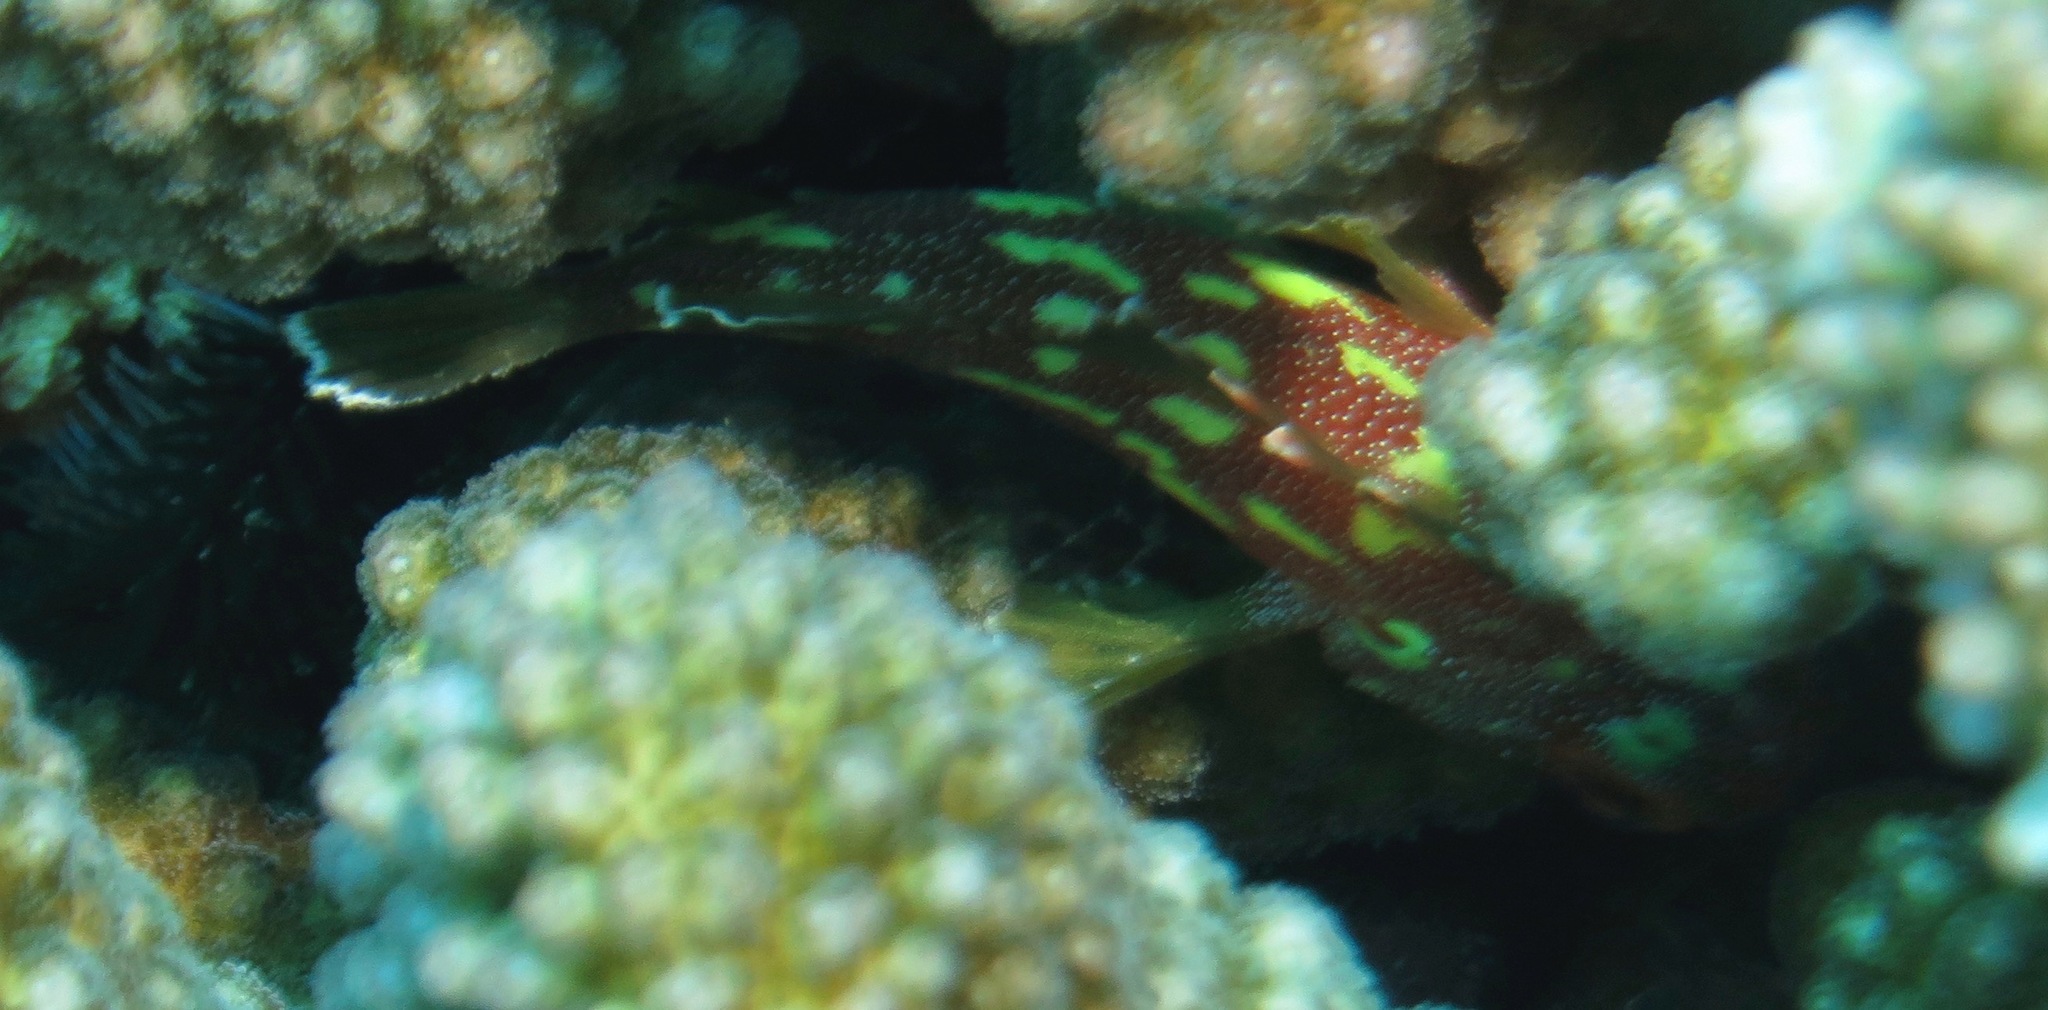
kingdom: Animalia
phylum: Chordata
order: Scorpaeniformes
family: Scorpaenidae
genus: Sebastapistes
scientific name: Sebastapistes cyanostigma
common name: Yellowspotted scorpionfish
